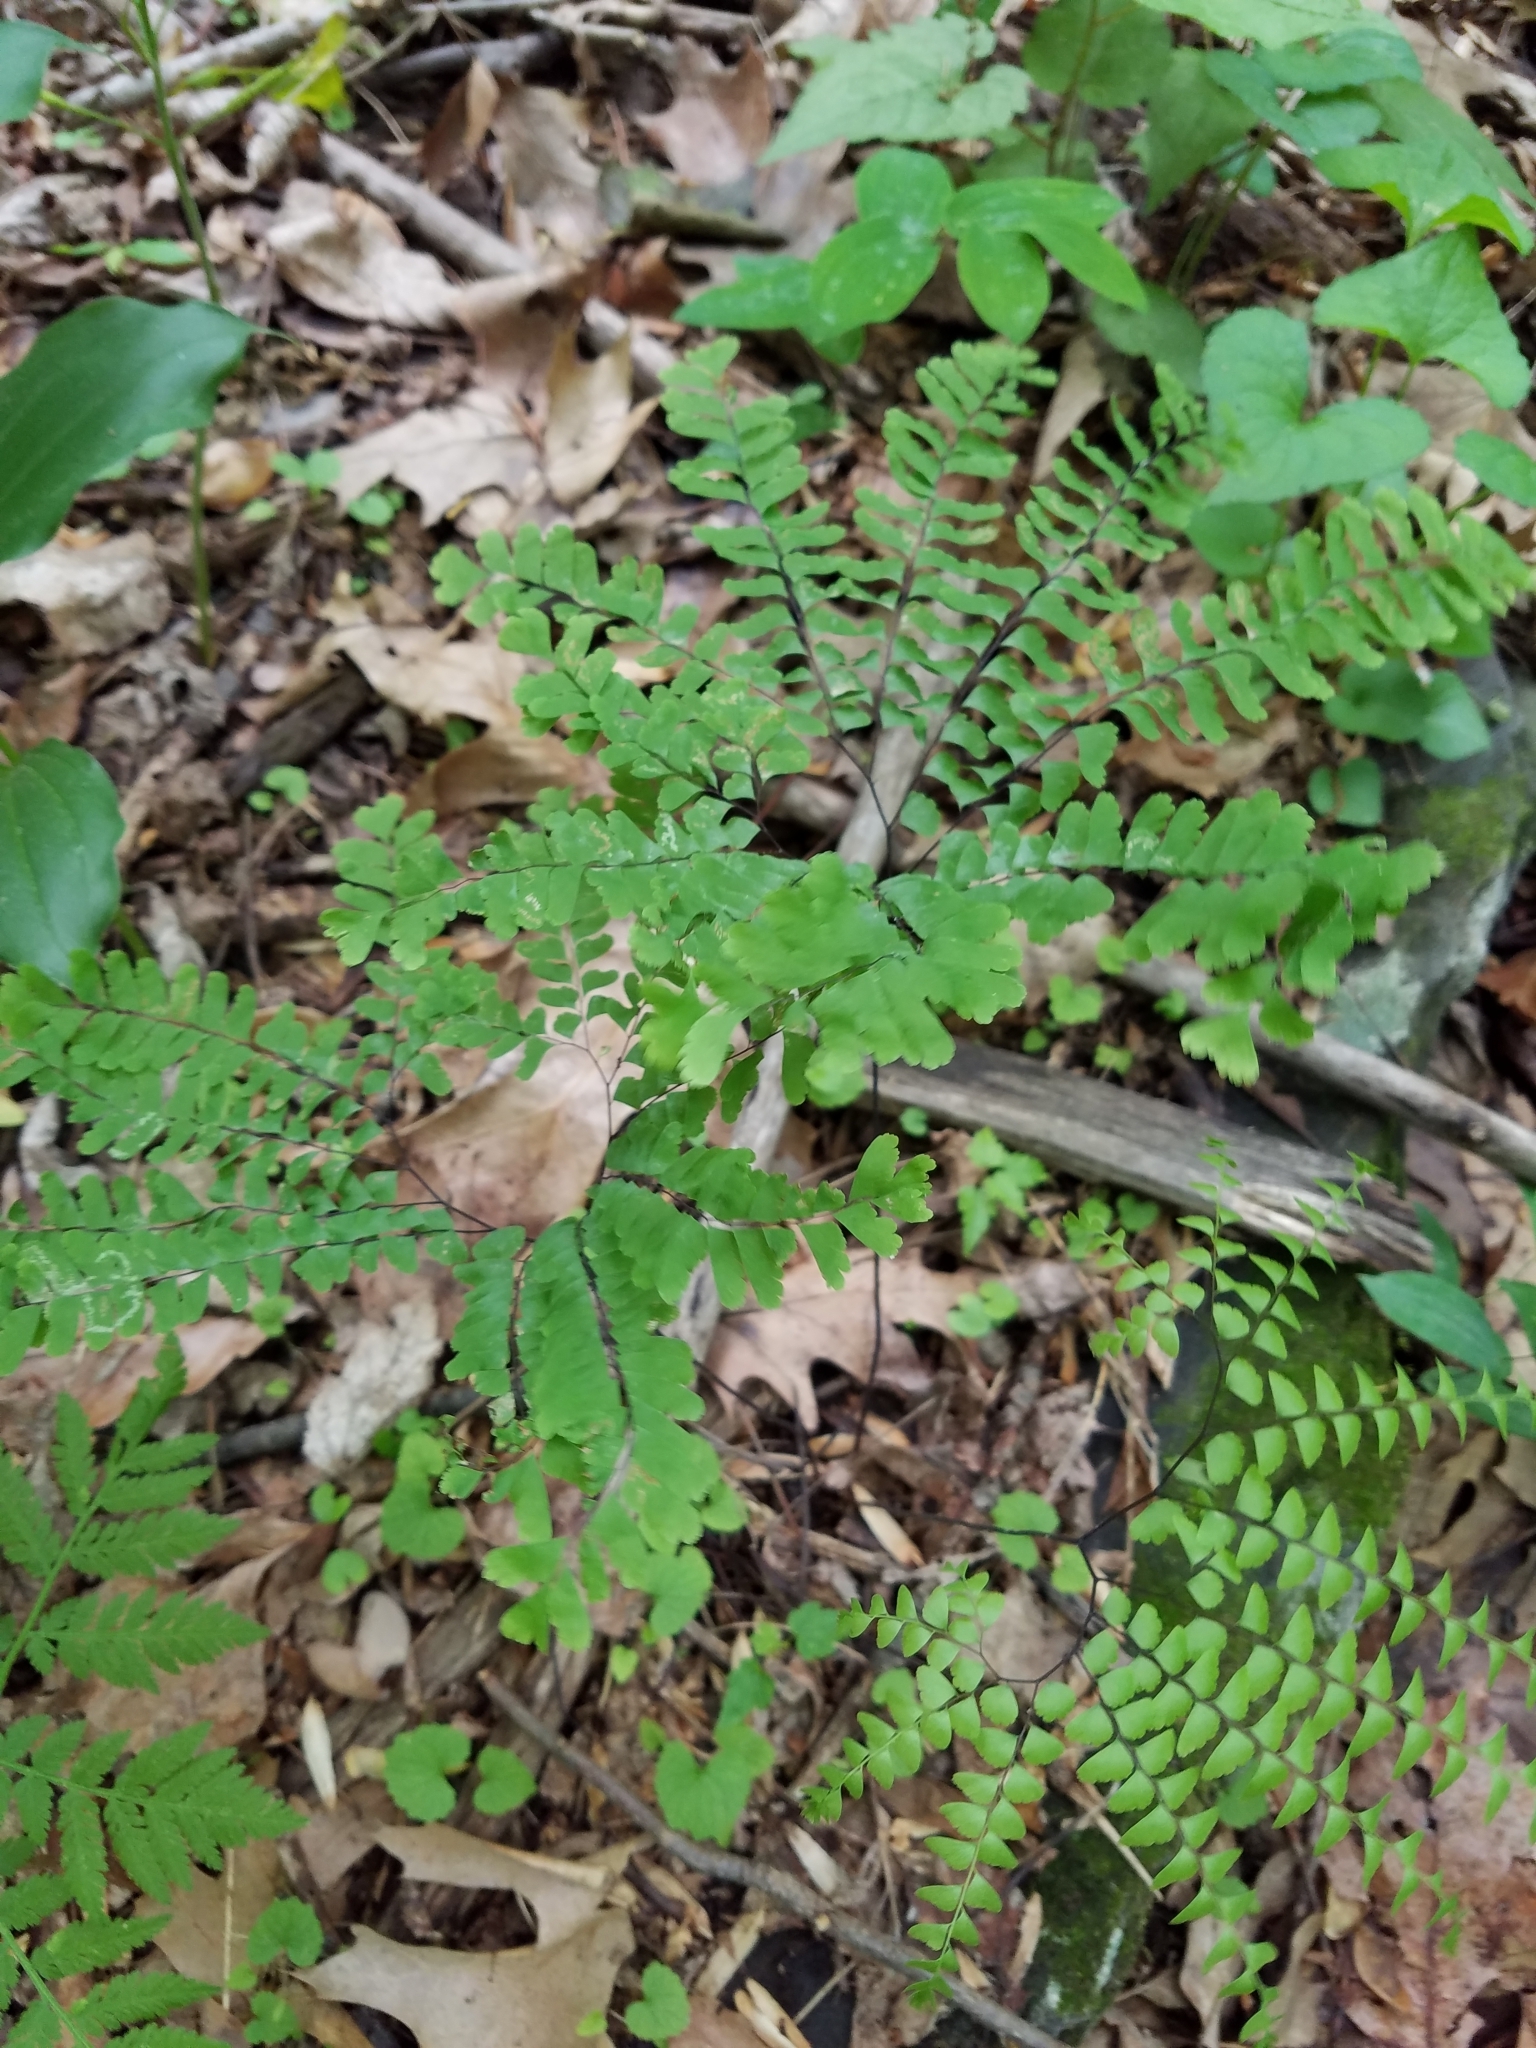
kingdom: Plantae
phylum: Tracheophyta
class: Polypodiopsida
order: Polypodiales
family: Pteridaceae
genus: Adiantum
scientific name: Adiantum pedatum
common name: Five-finger fern
